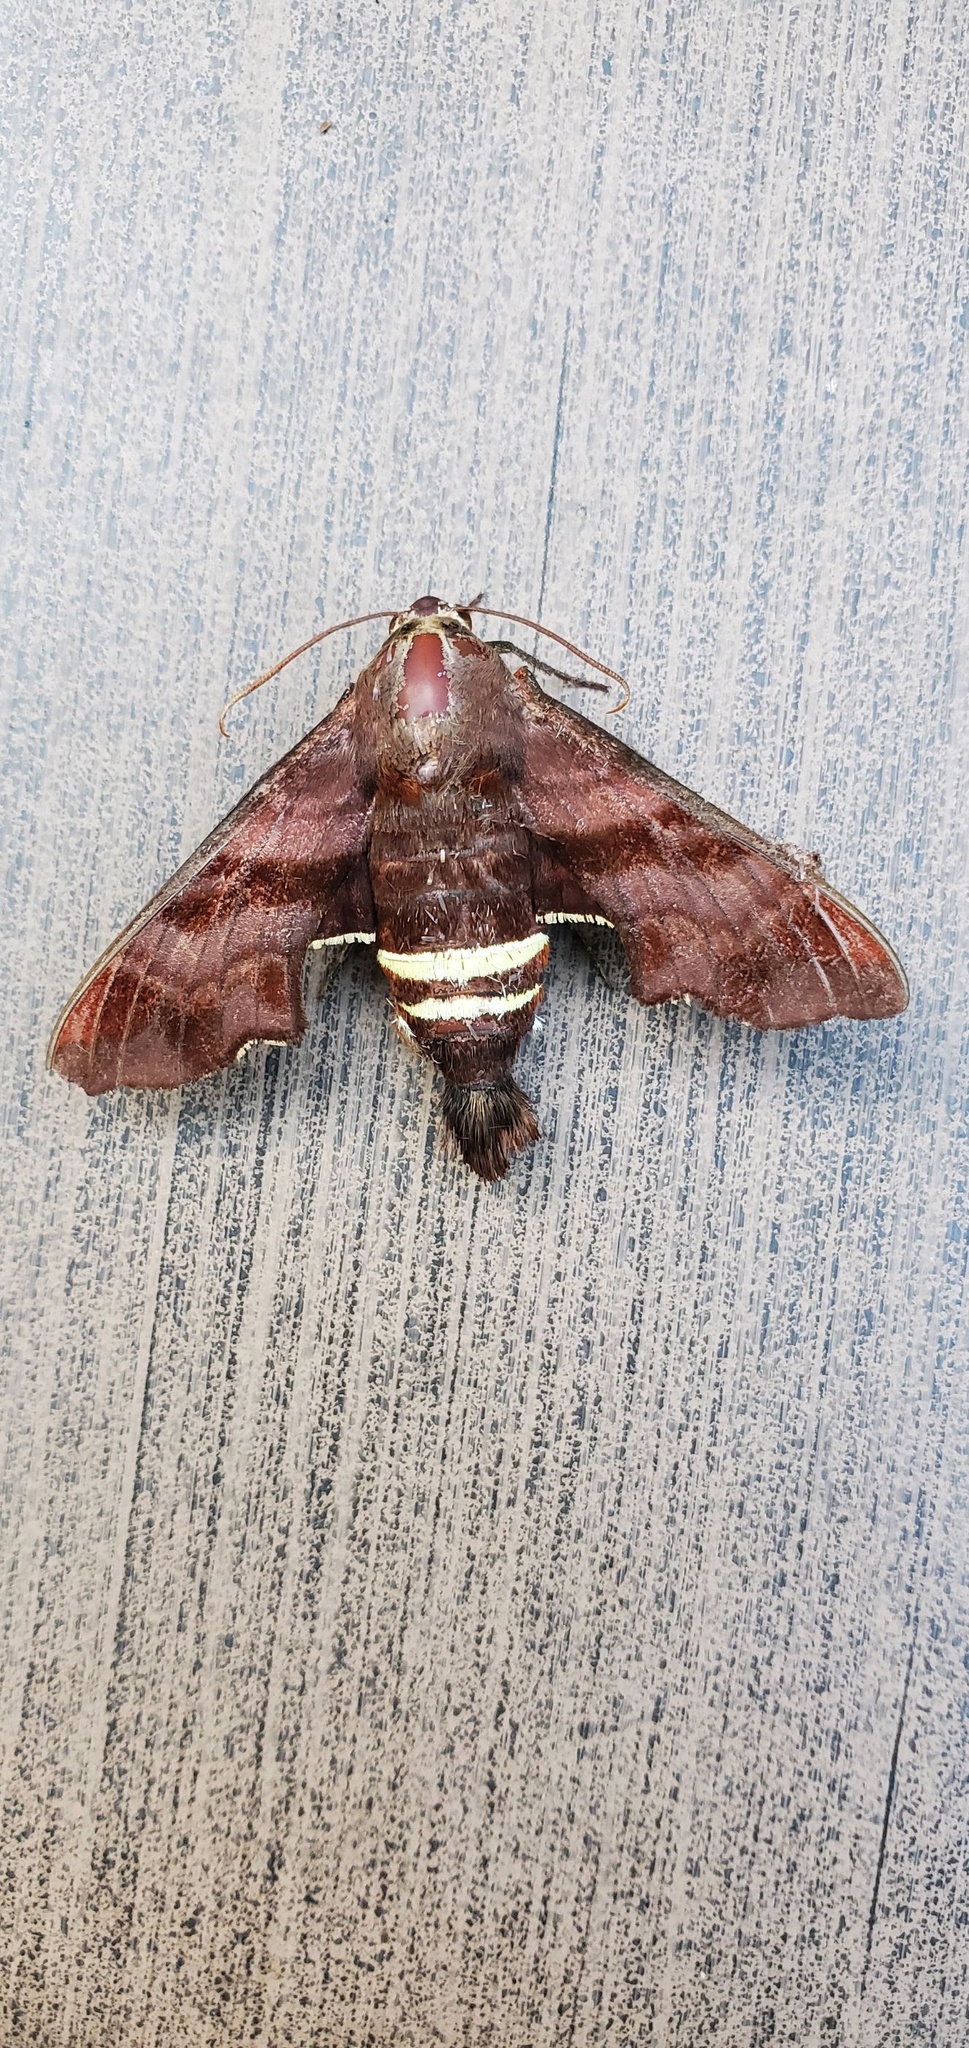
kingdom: Animalia
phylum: Arthropoda
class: Insecta
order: Lepidoptera
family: Sphingidae
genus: Amphion
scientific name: Amphion floridensis
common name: Nessus sphinx
